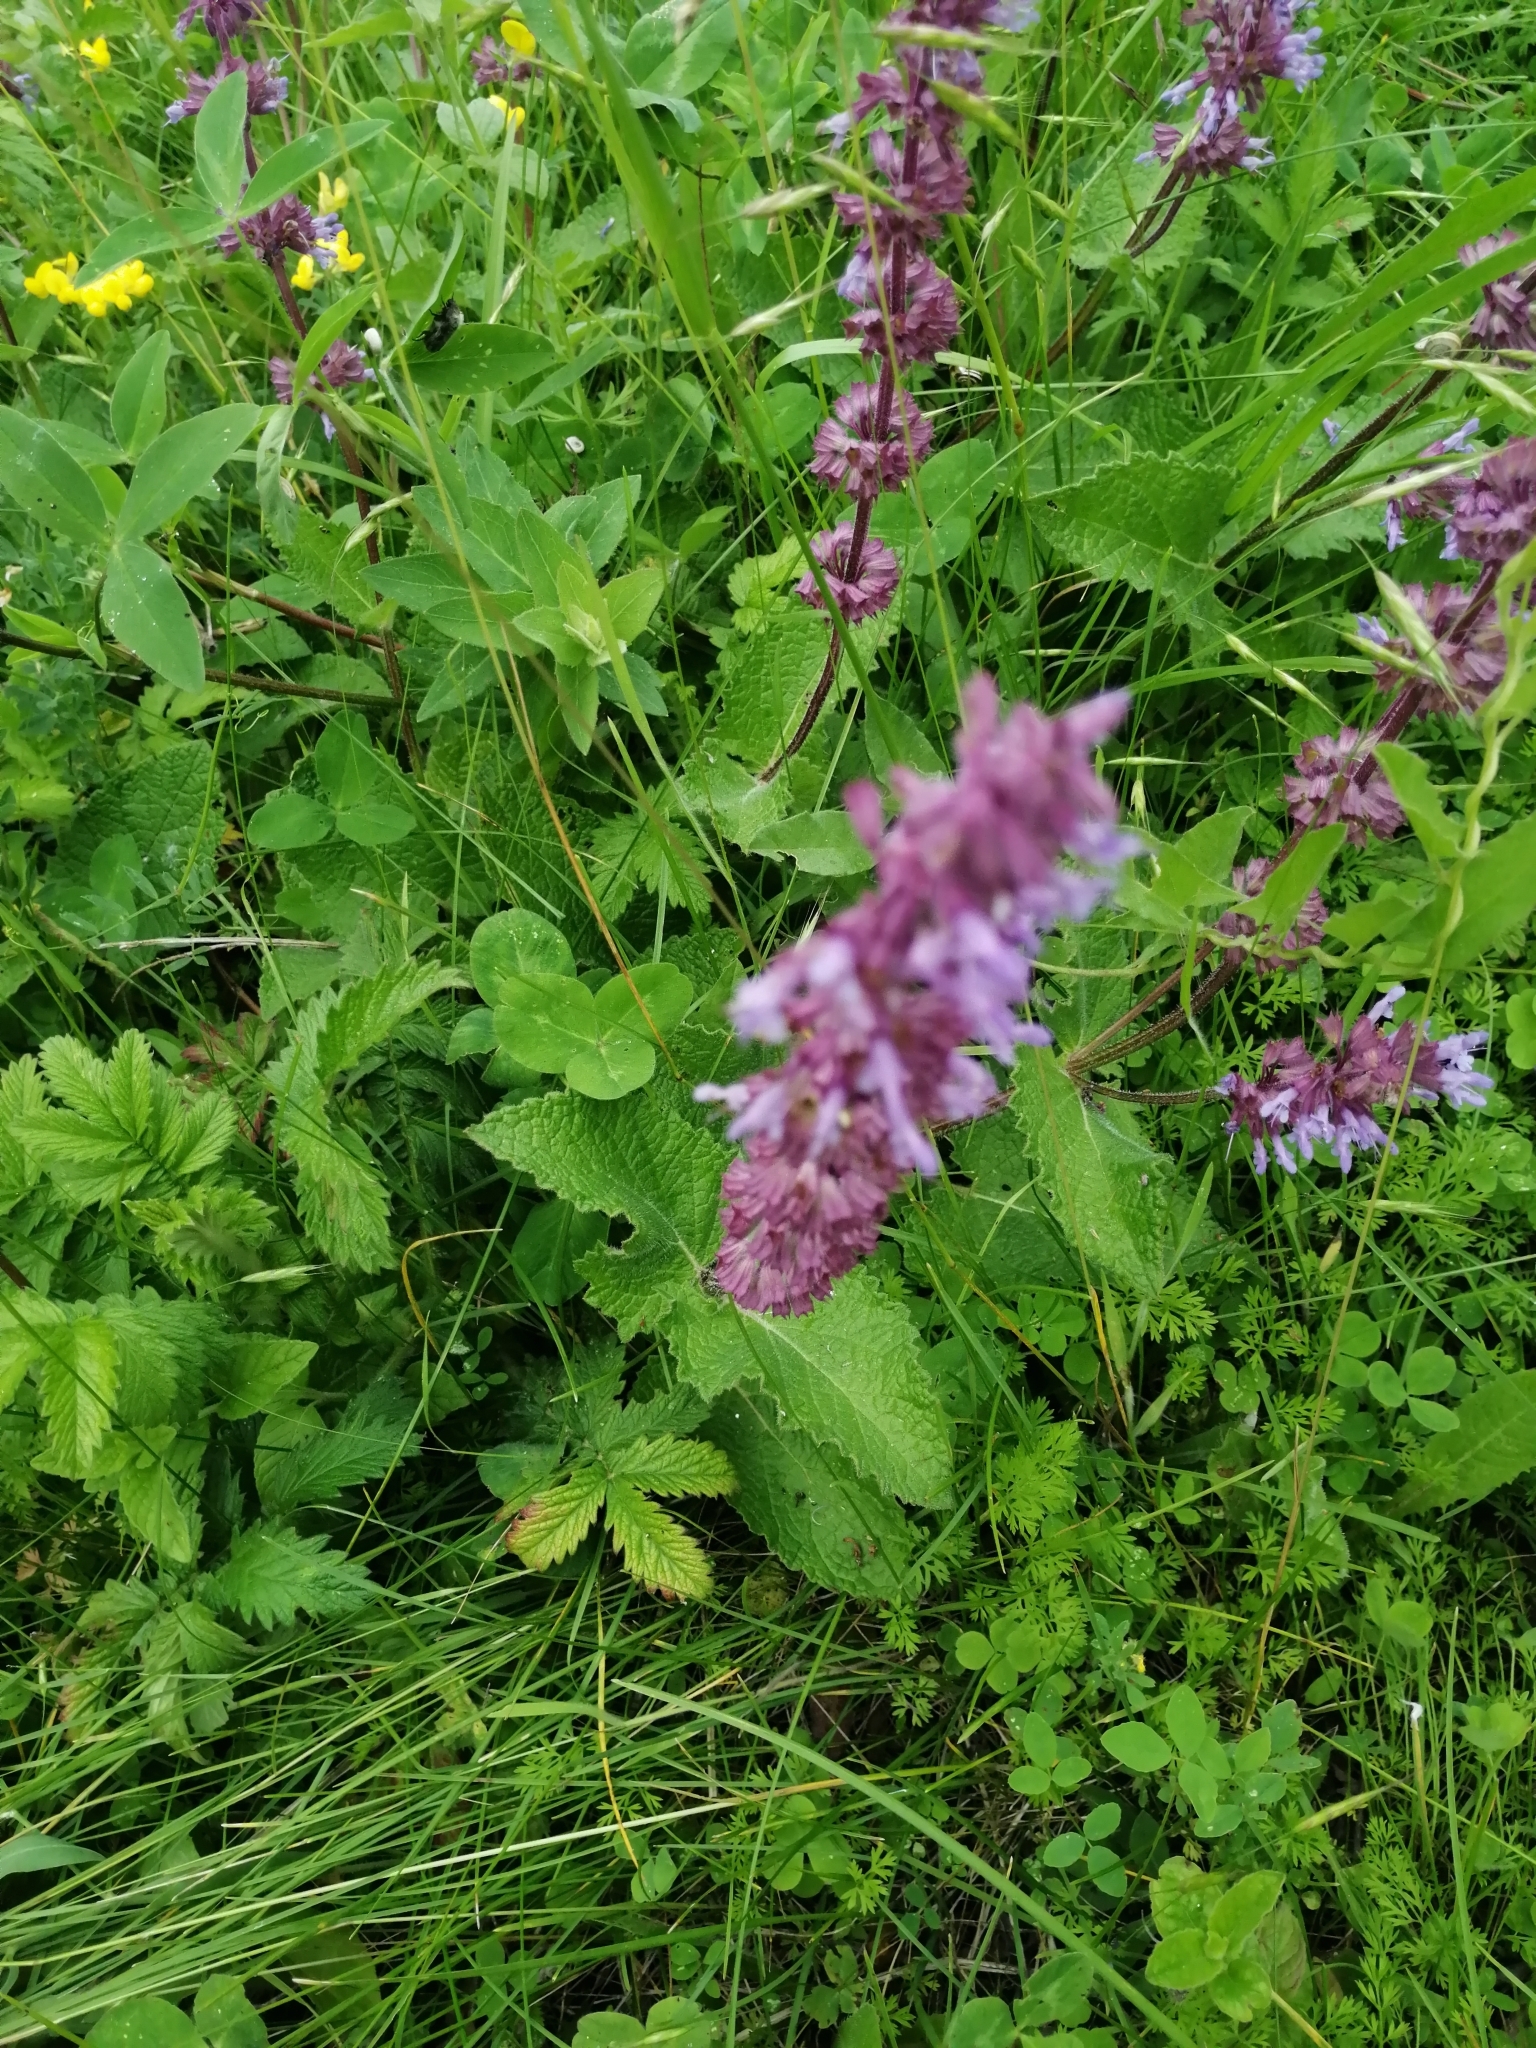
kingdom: Plantae
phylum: Tracheophyta
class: Magnoliopsida
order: Lamiales
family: Lamiaceae
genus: Salvia
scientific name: Salvia verticillata
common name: Whorled clary
